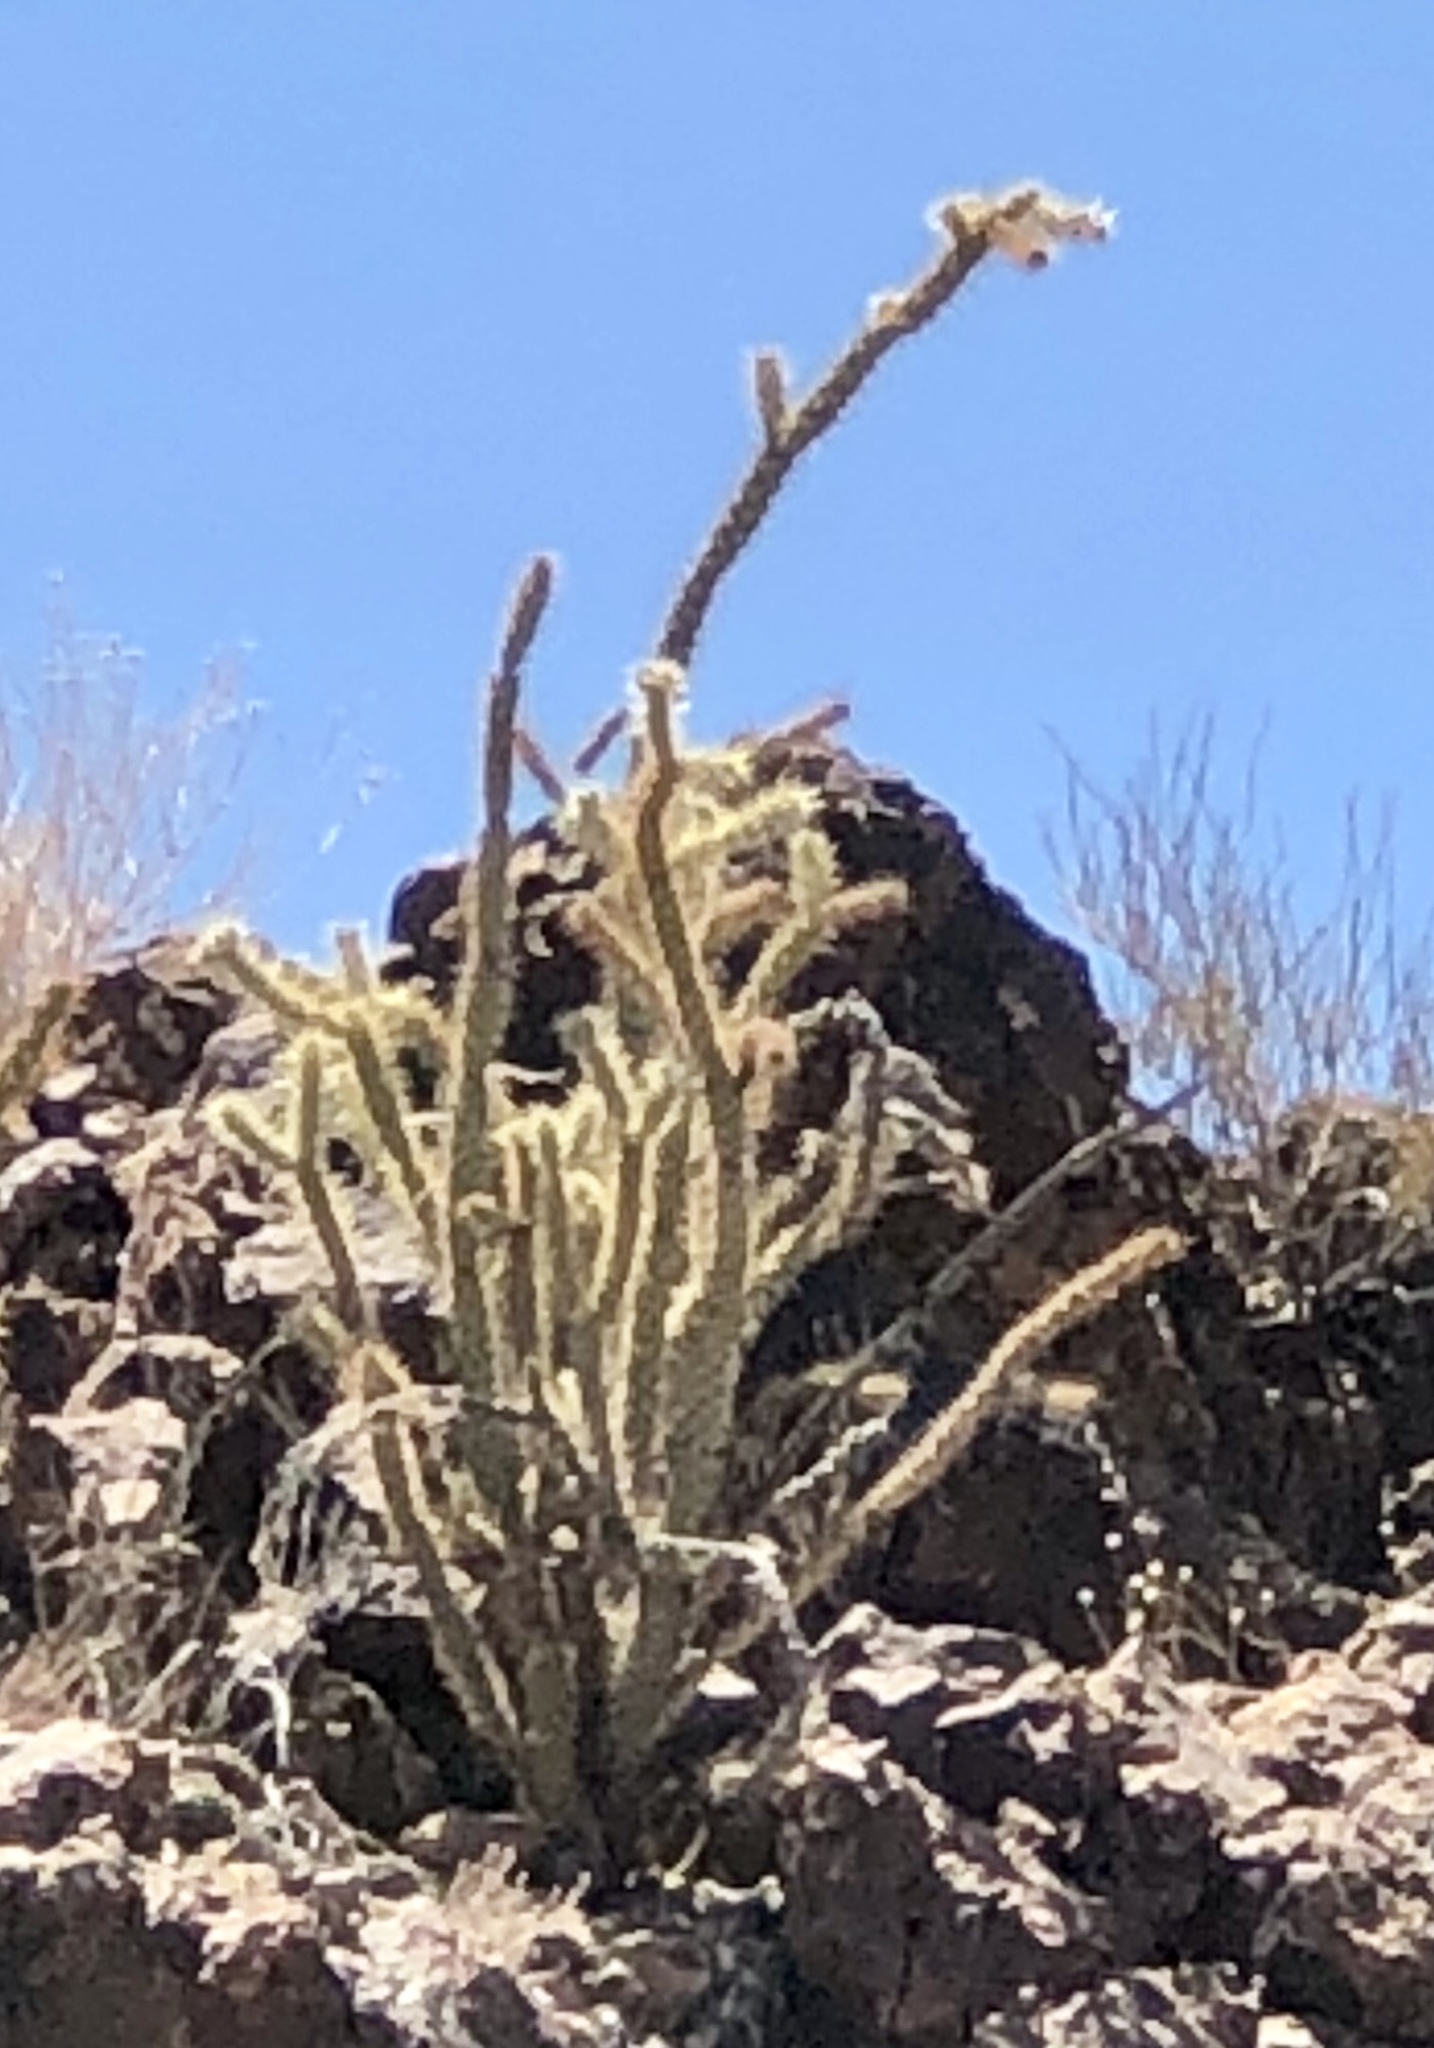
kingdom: Plantae
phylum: Tracheophyta
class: Magnoliopsida
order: Caryophyllales
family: Cactaceae
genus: Cylindropuntia
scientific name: Cylindropuntia acanthocarpa
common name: Buckhorn cholla
